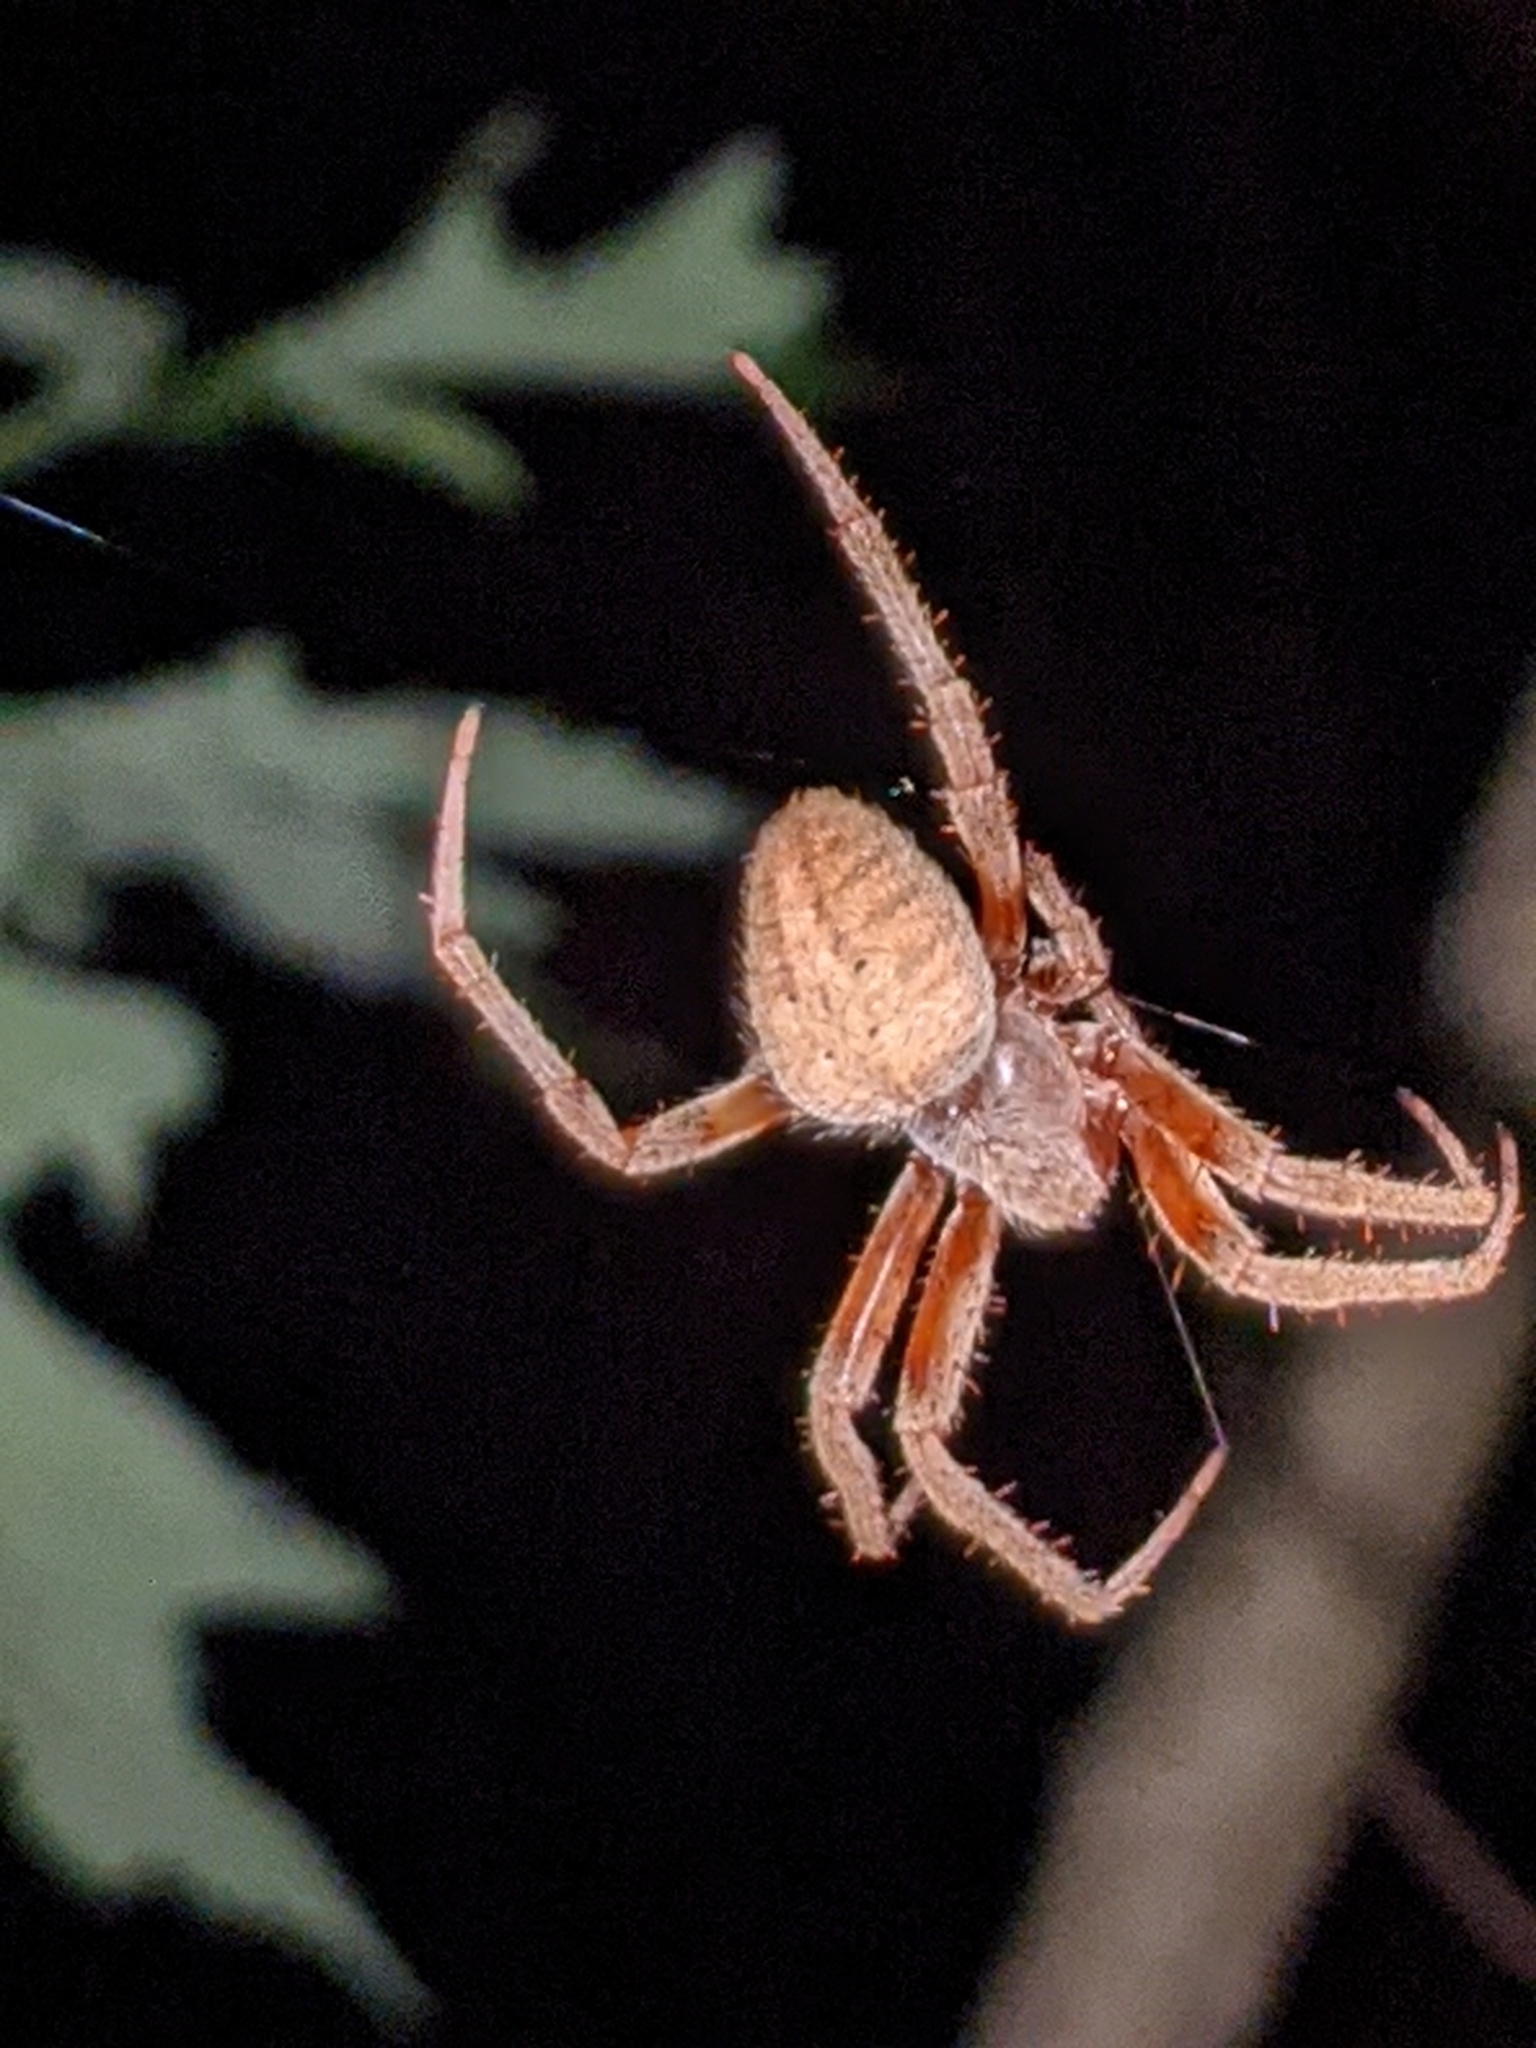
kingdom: Animalia
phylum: Arthropoda
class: Arachnida
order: Araneae
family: Araneidae
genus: Neoscona
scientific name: Neoscona crucifera
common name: Spotted orbweaver
